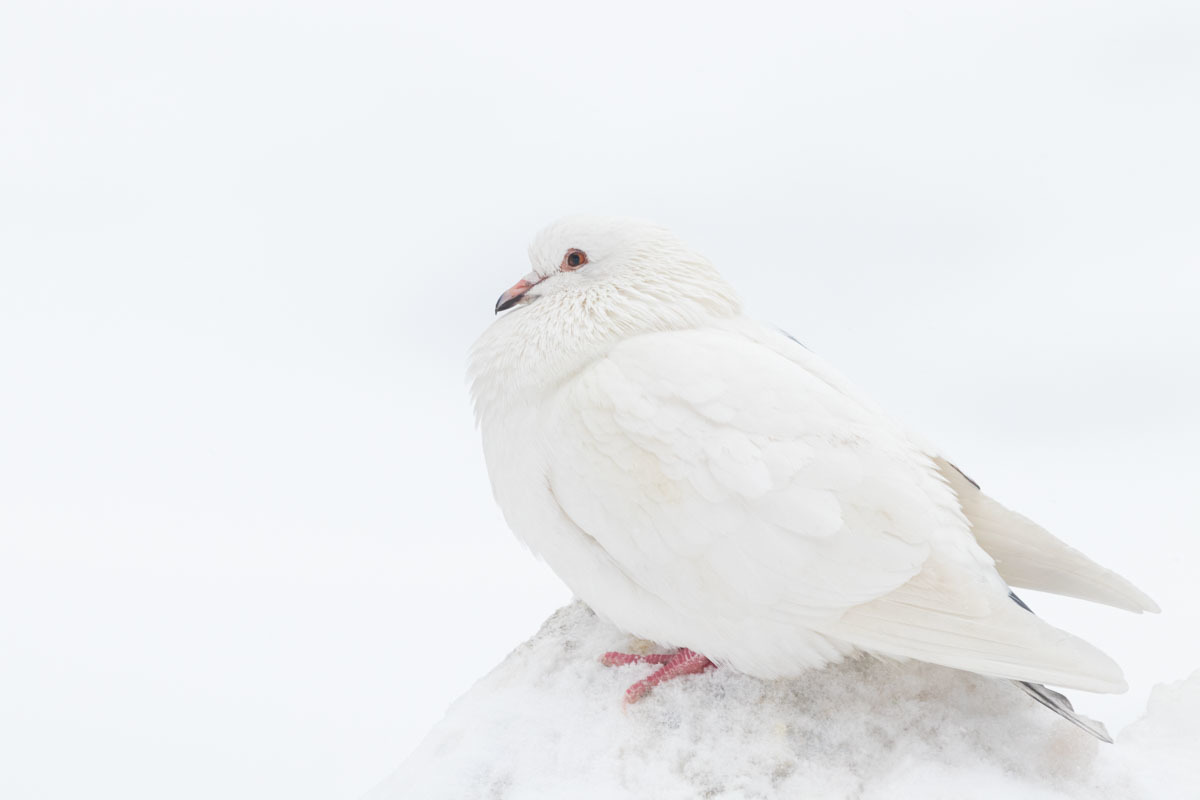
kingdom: Animalia
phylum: Chordata
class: Aves
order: Columbiformes
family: Columbidae
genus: Columba
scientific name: Columba livia
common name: Rock pigeon
